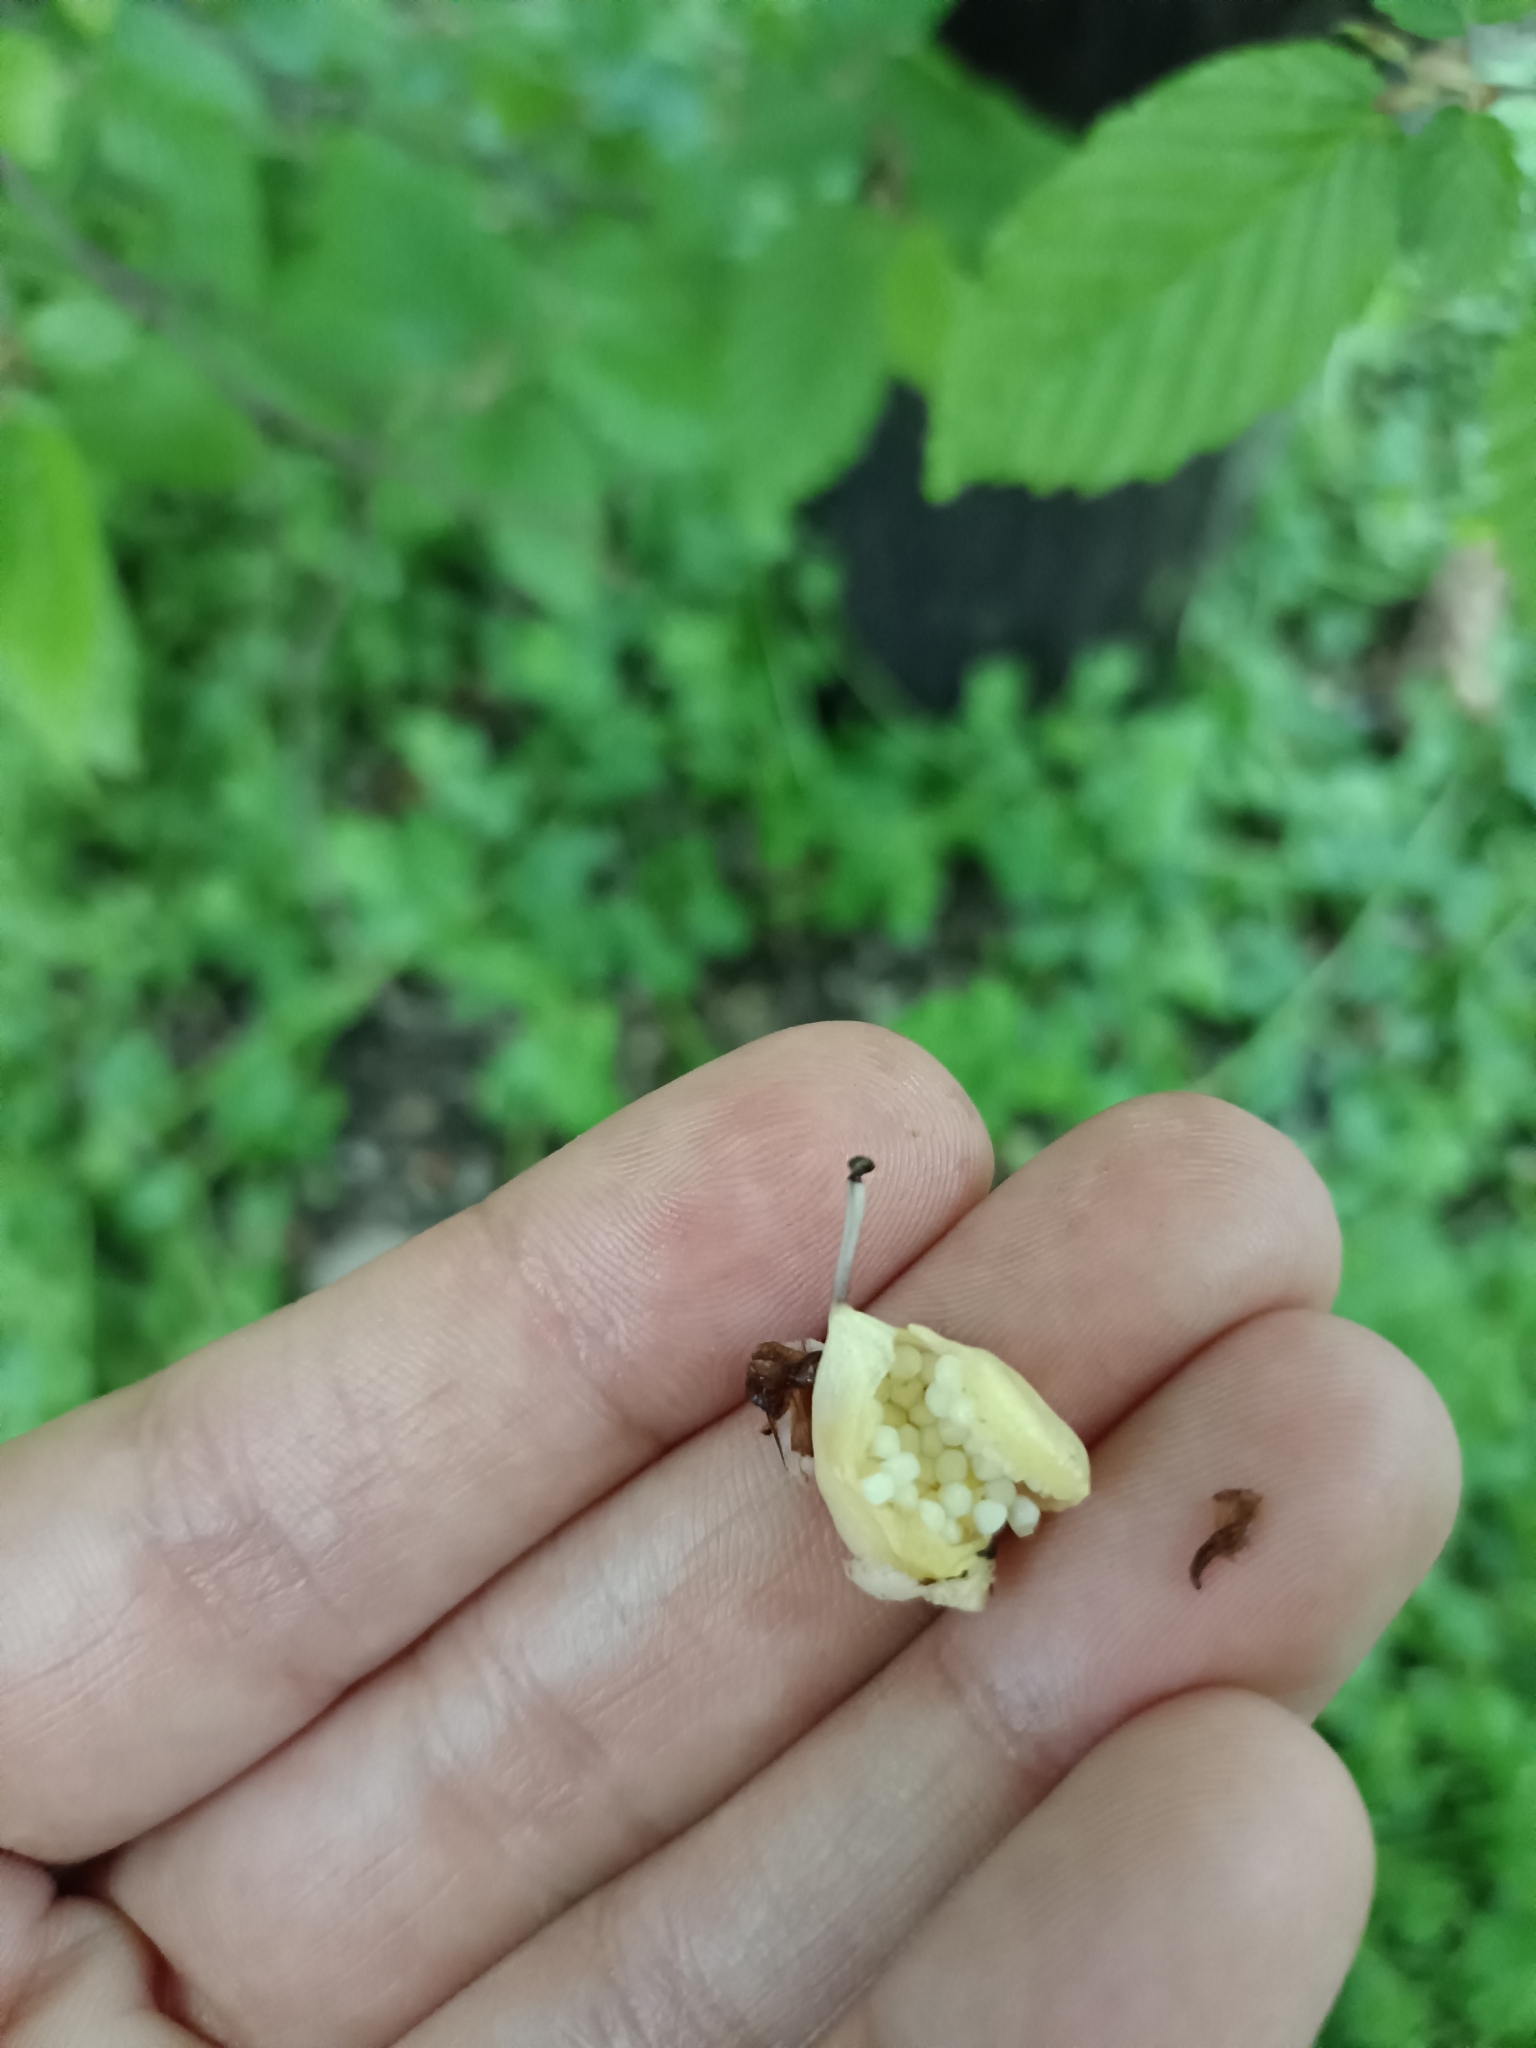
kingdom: Plantae
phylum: Tracheophyta
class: Magnoliopsida
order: Lamiales
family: Orobanchaceae
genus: Lathraea
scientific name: Lathraea squamaria
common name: Toothwort
